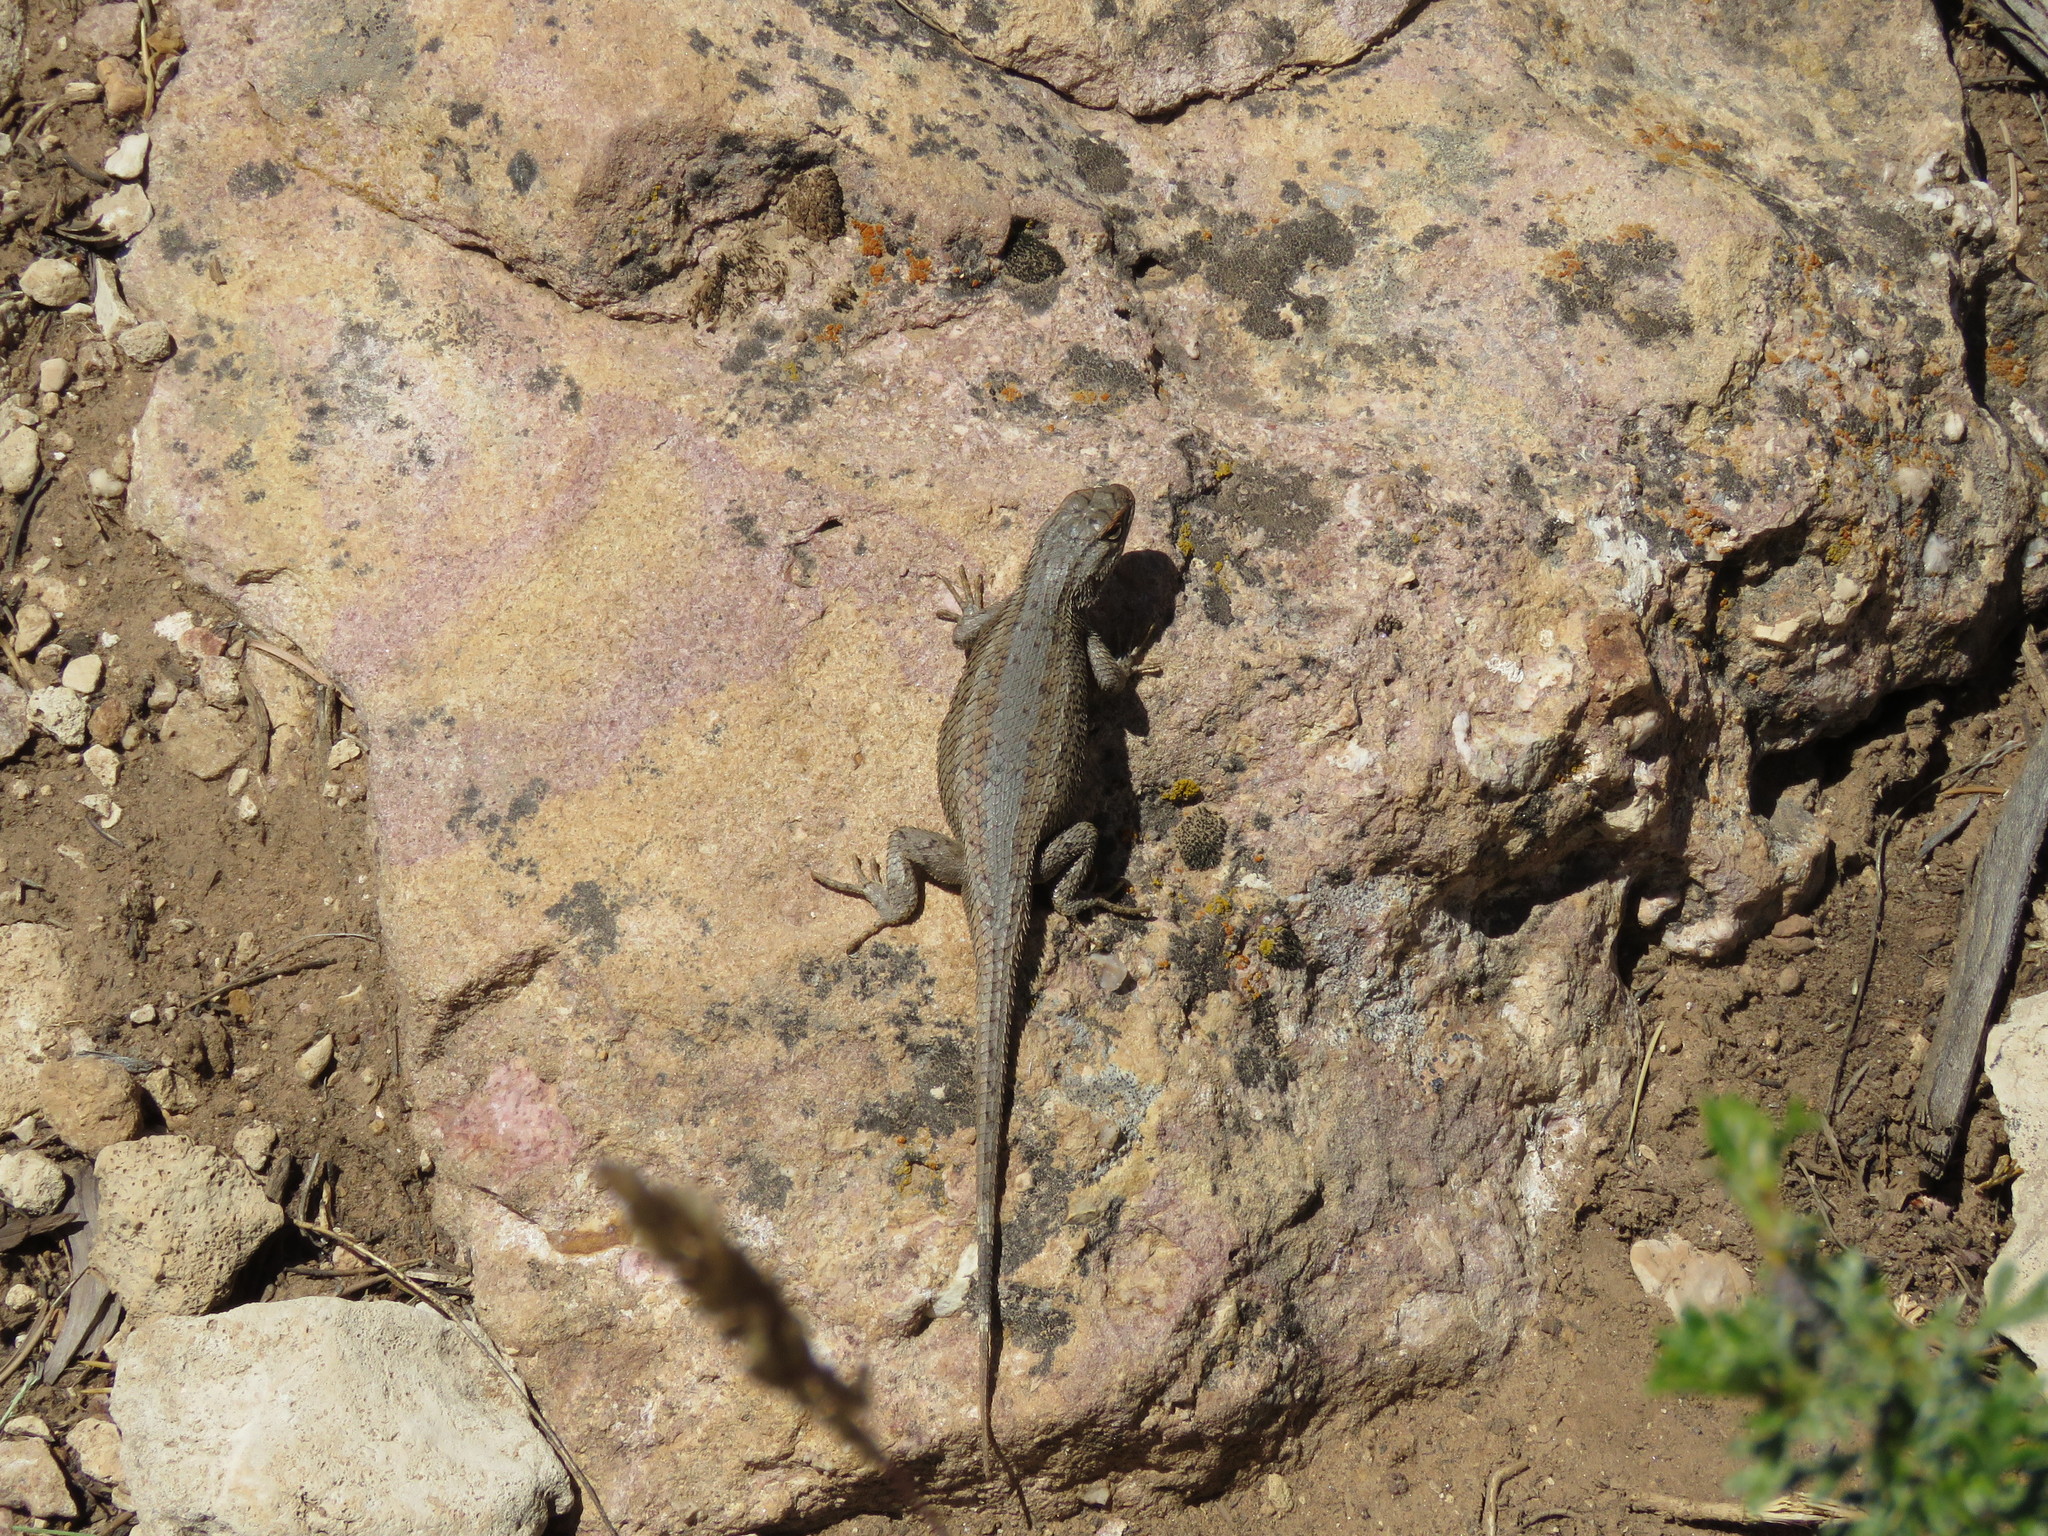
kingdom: Animalia
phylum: Chordata
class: Squamata
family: Phrynosomatidae
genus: Sceloporus
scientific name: Sceloporus tristichus
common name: Plateau fence lizard
